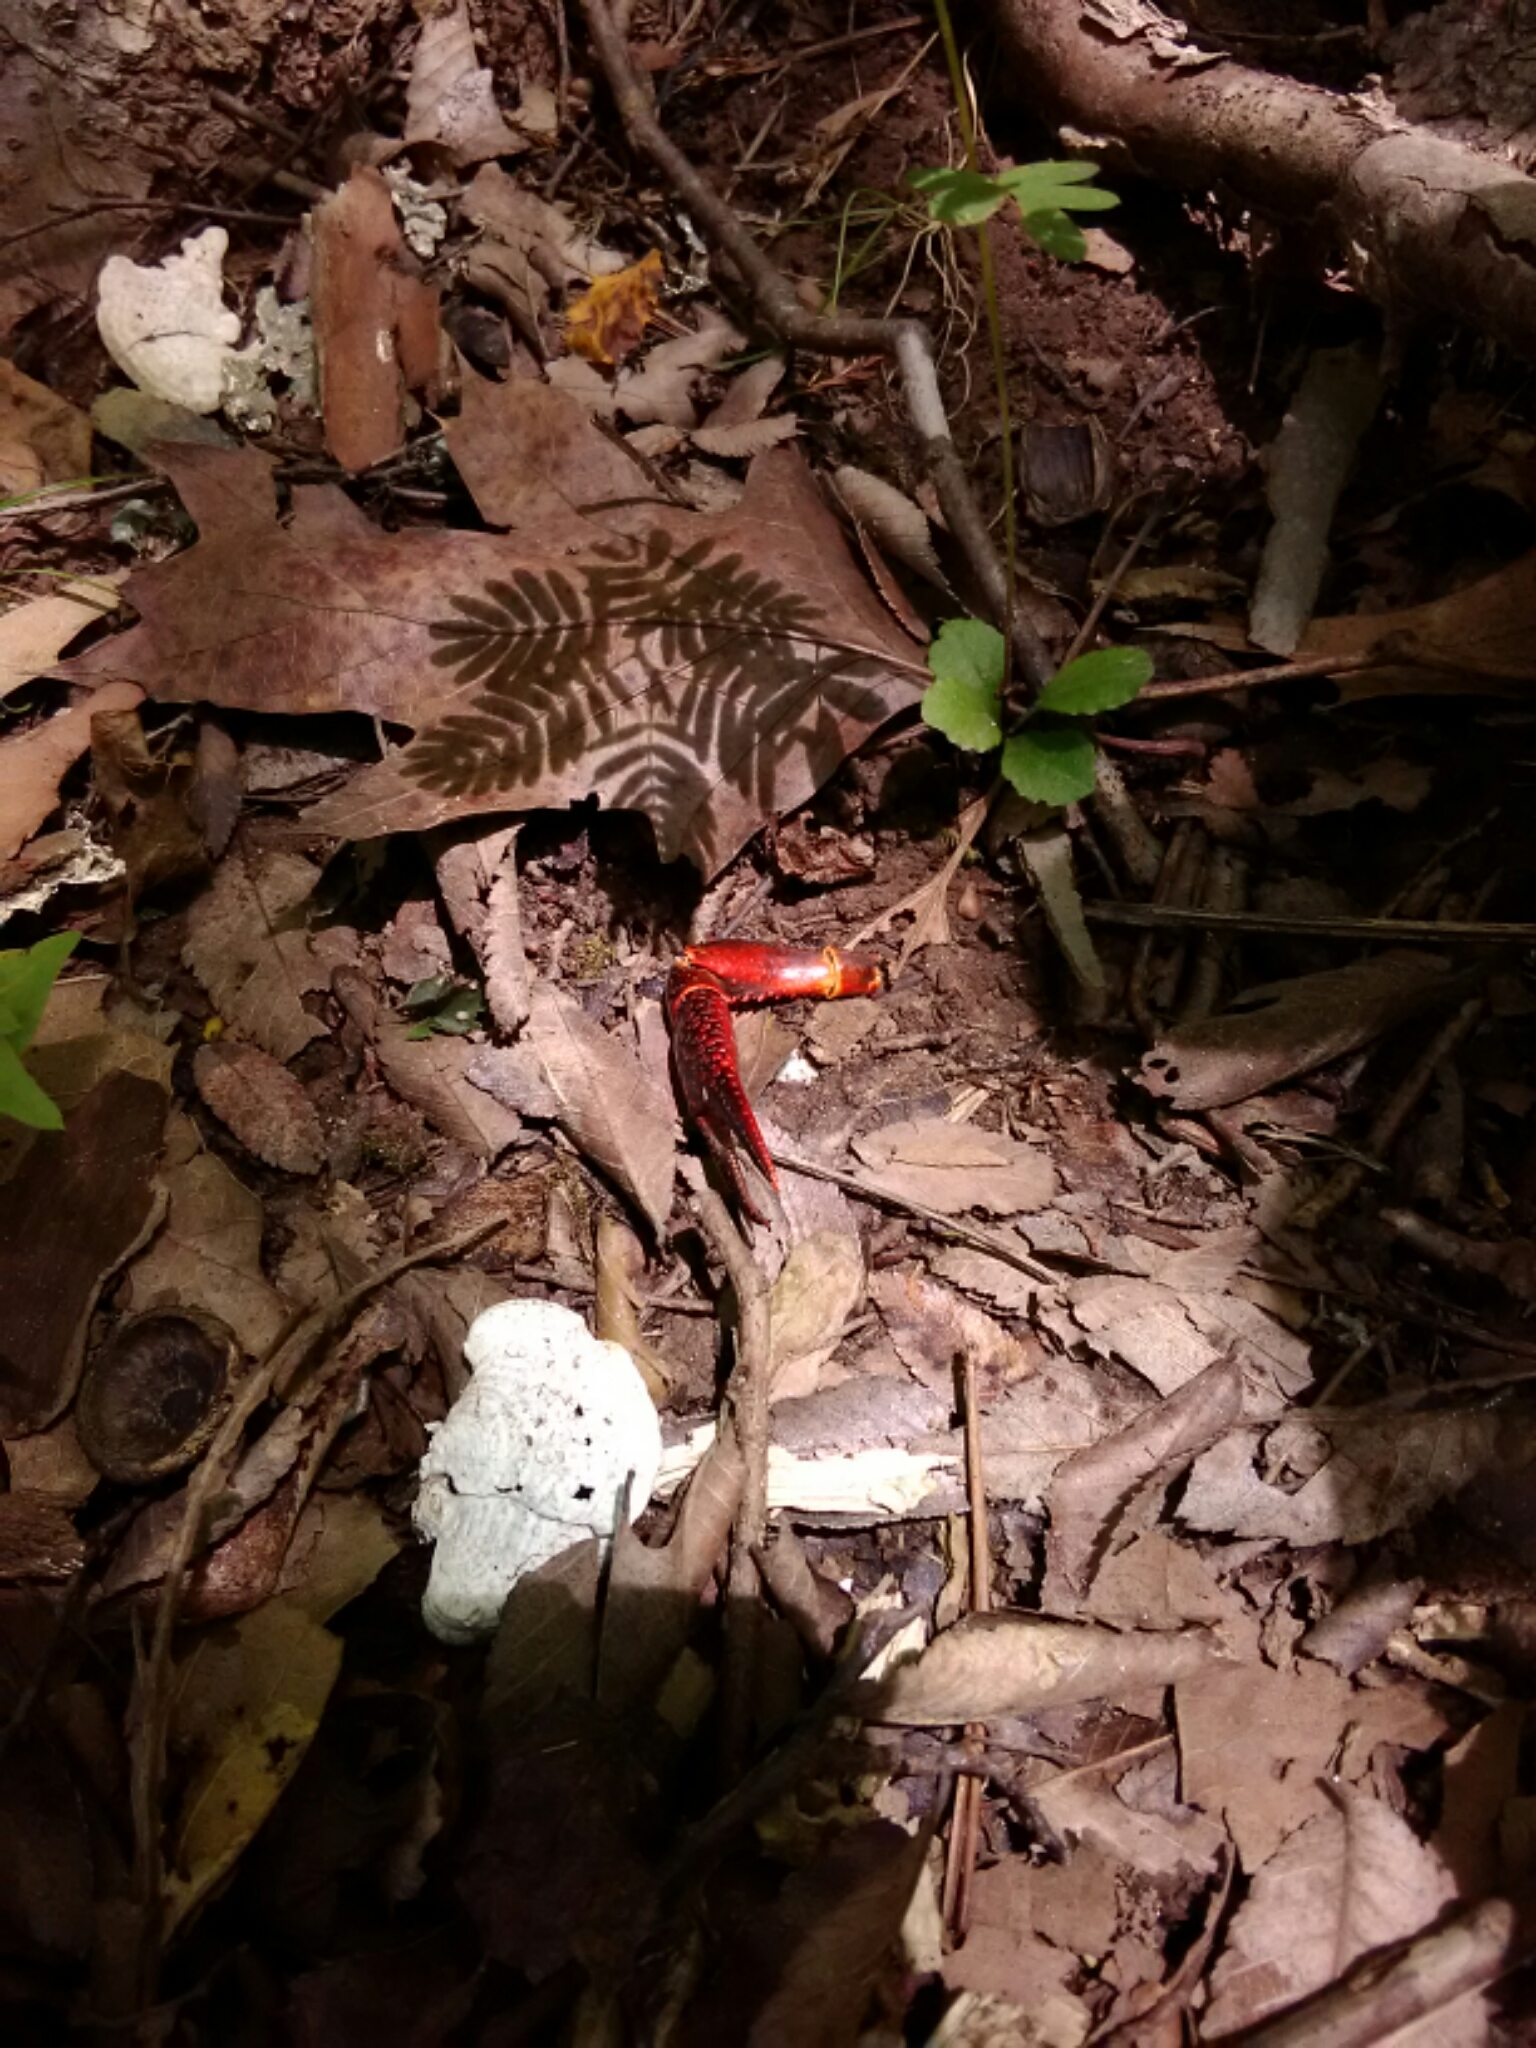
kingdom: Animalia
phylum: Arthropoda
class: Malacostraca
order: Decapoda
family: Cambaridae
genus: Procambarus
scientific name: Procambarus clarkii
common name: Red swamp crayfish
